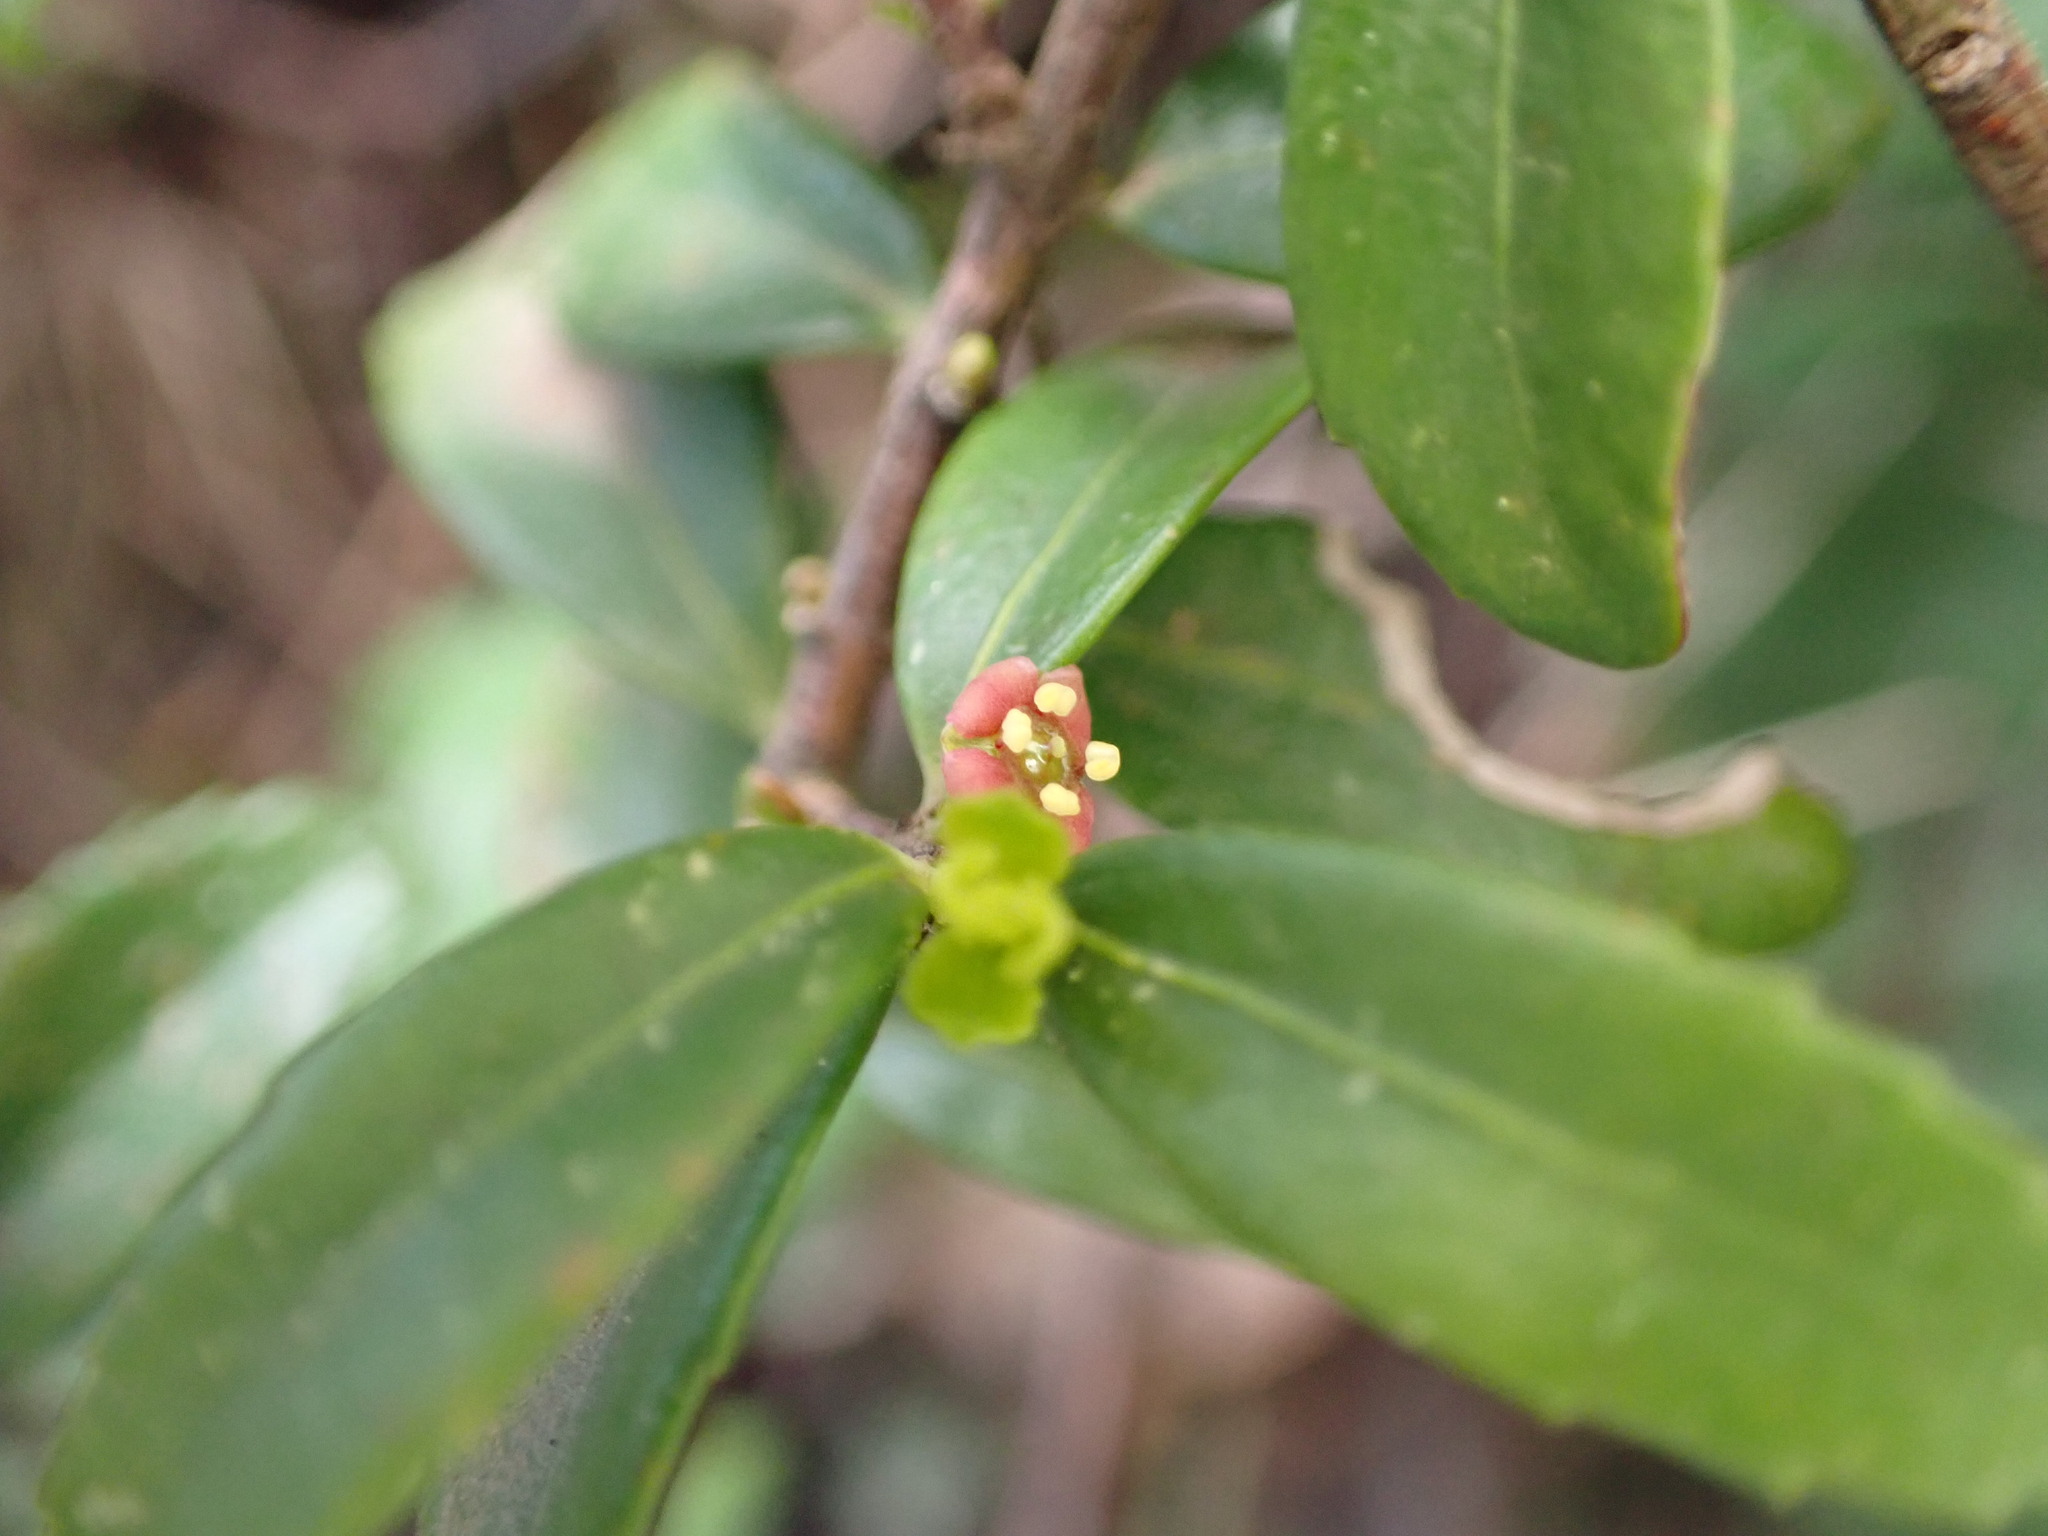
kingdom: Plantae
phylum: Tracheophyta
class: Magnoliopsida
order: Celastrales
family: Celastraceae
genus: Paxistima
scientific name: Paxistima myrsinites
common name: Mountain-lover
